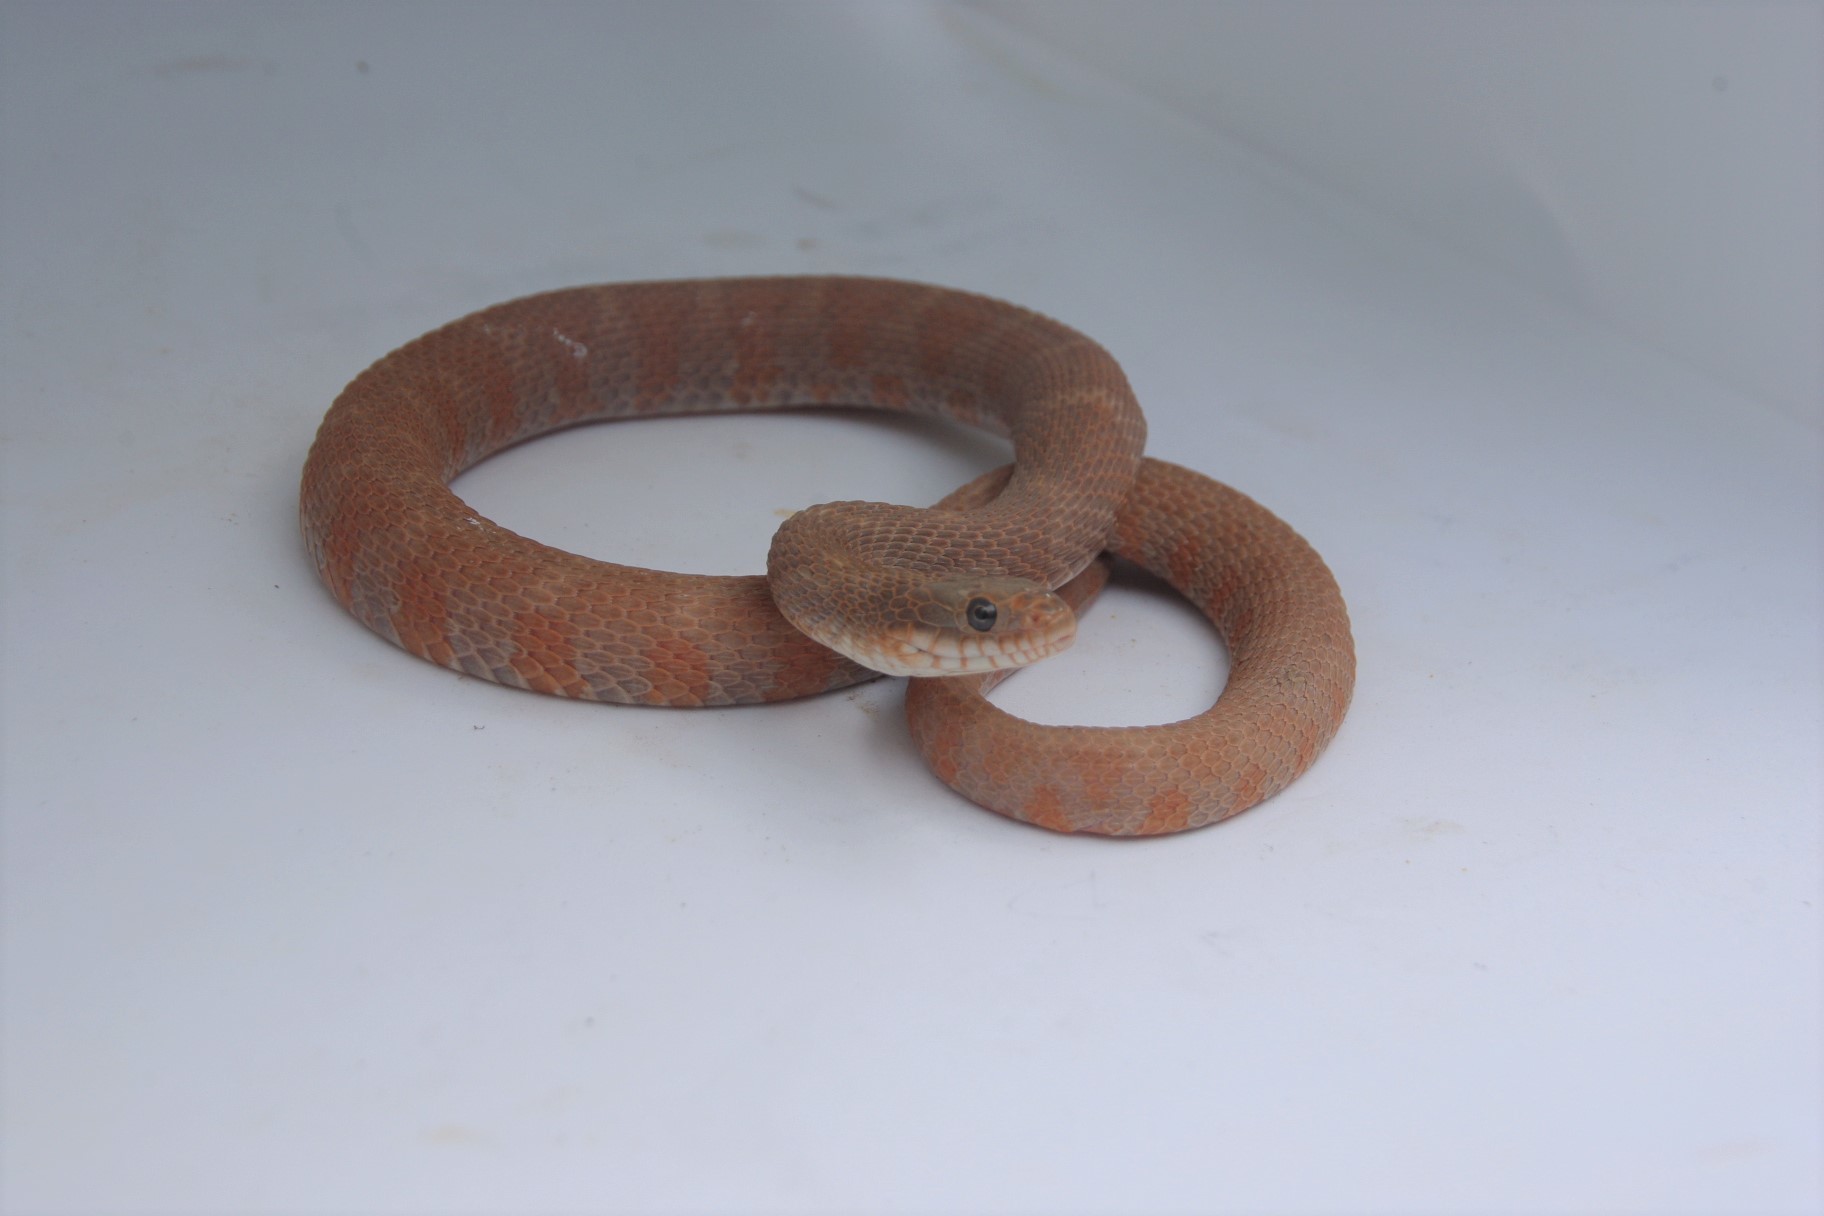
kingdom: Animalia
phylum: Chordata
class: Squamata
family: Colubridae
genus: Nerodia
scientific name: Nerodia sipedon
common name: Northern water snake
